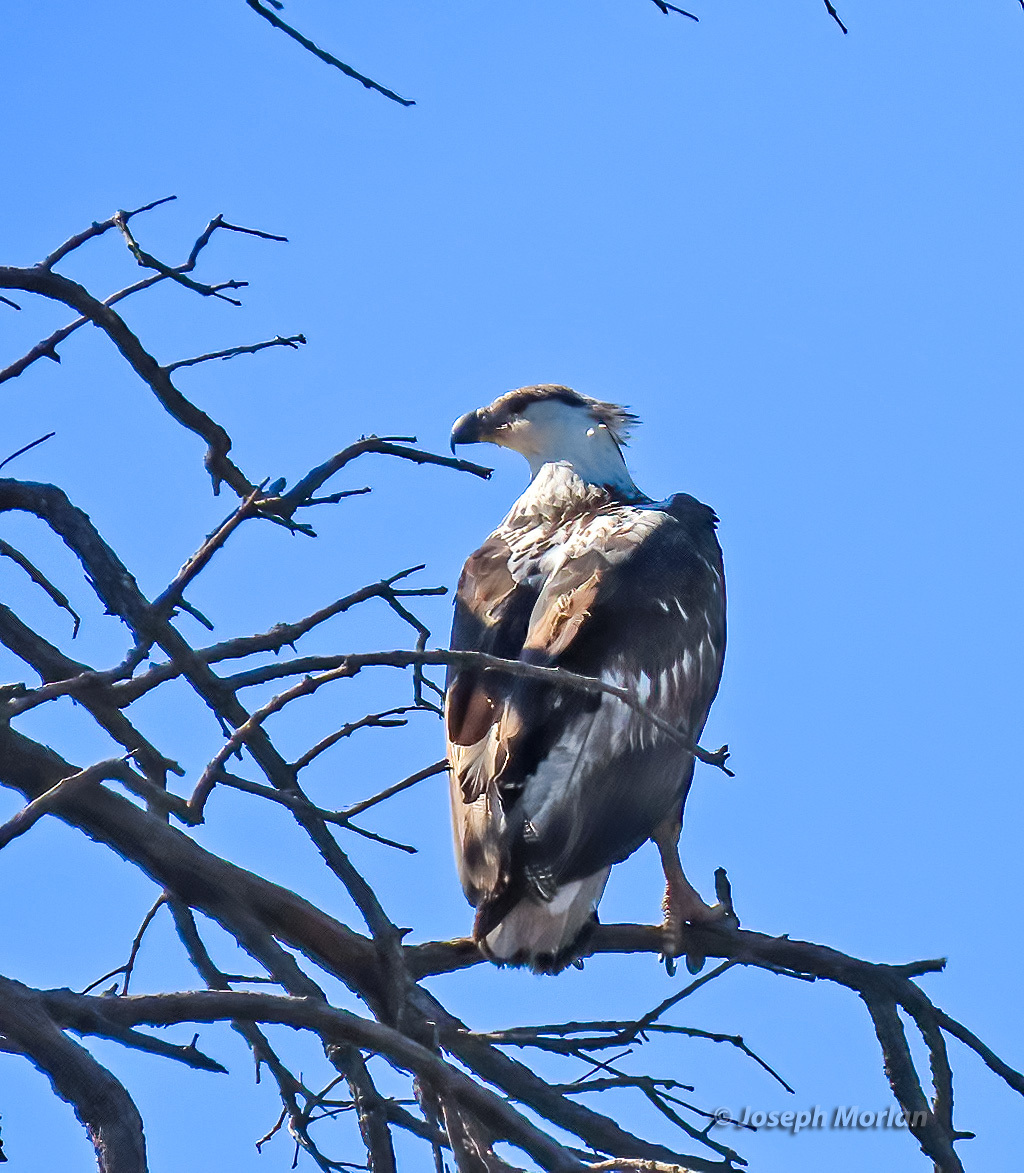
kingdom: Animalia
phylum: Chordata
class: Aves
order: Accipitriformes
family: Accipitridae
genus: Haliaeetus
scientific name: Haliaeetus vocifer
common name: African fish eagle
